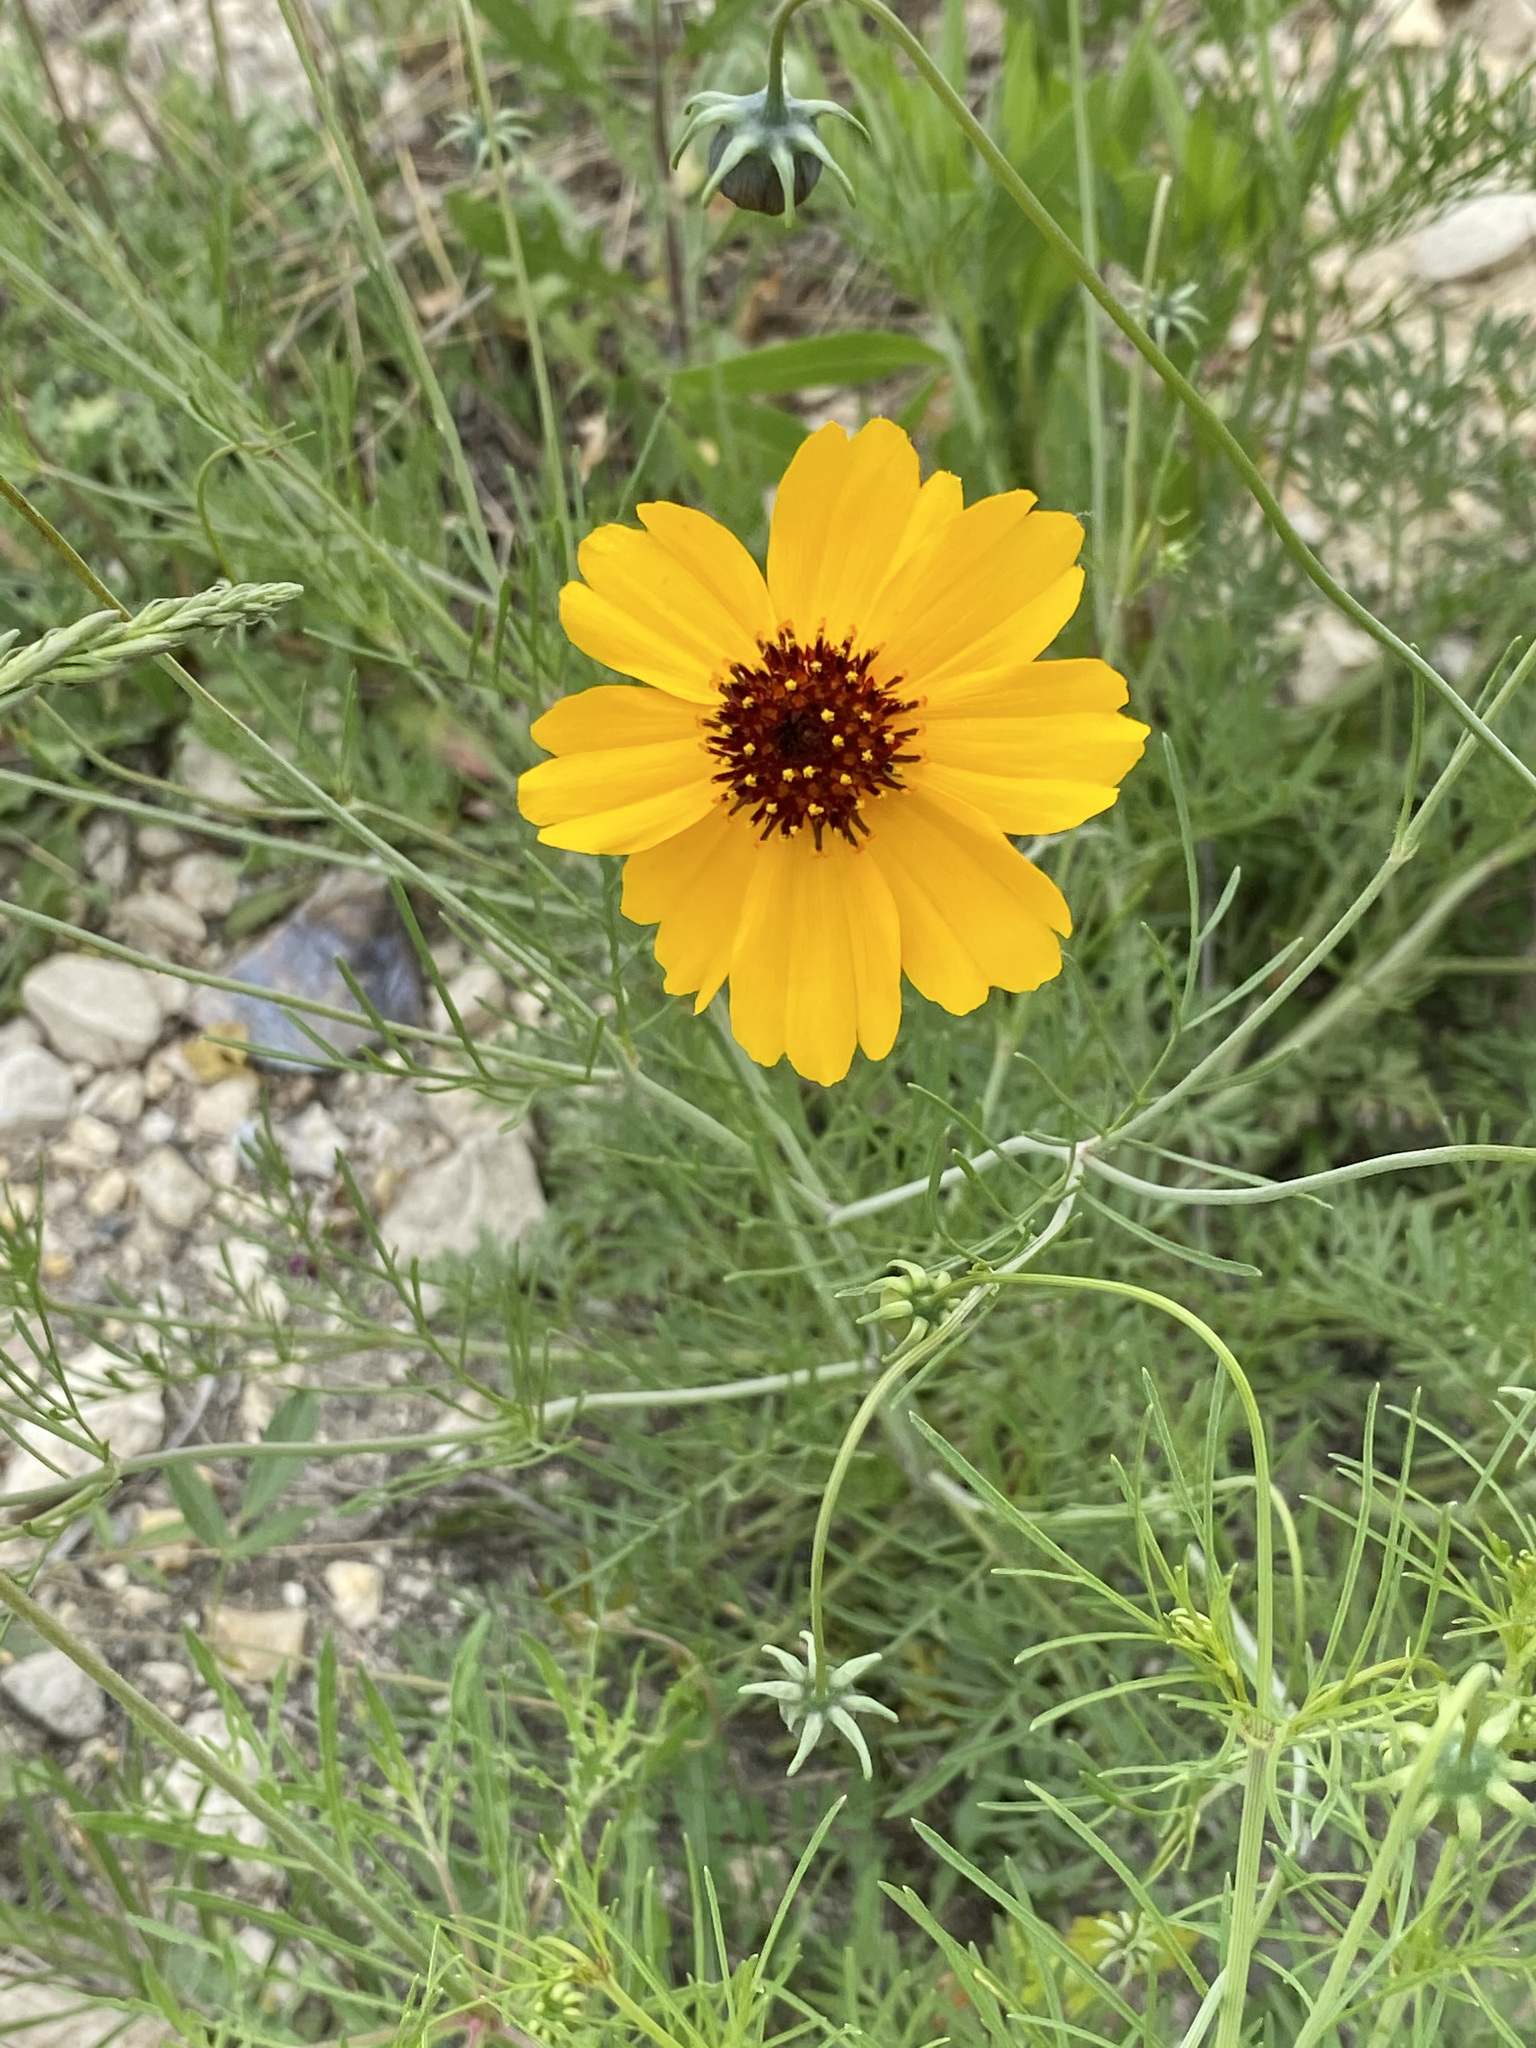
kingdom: Plantae
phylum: Tracheophyta
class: Magnoliopsida
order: Asterales
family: Asteraceae
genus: Thelesperma
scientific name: Thelesperma filifolium
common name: Stiff greenthread
